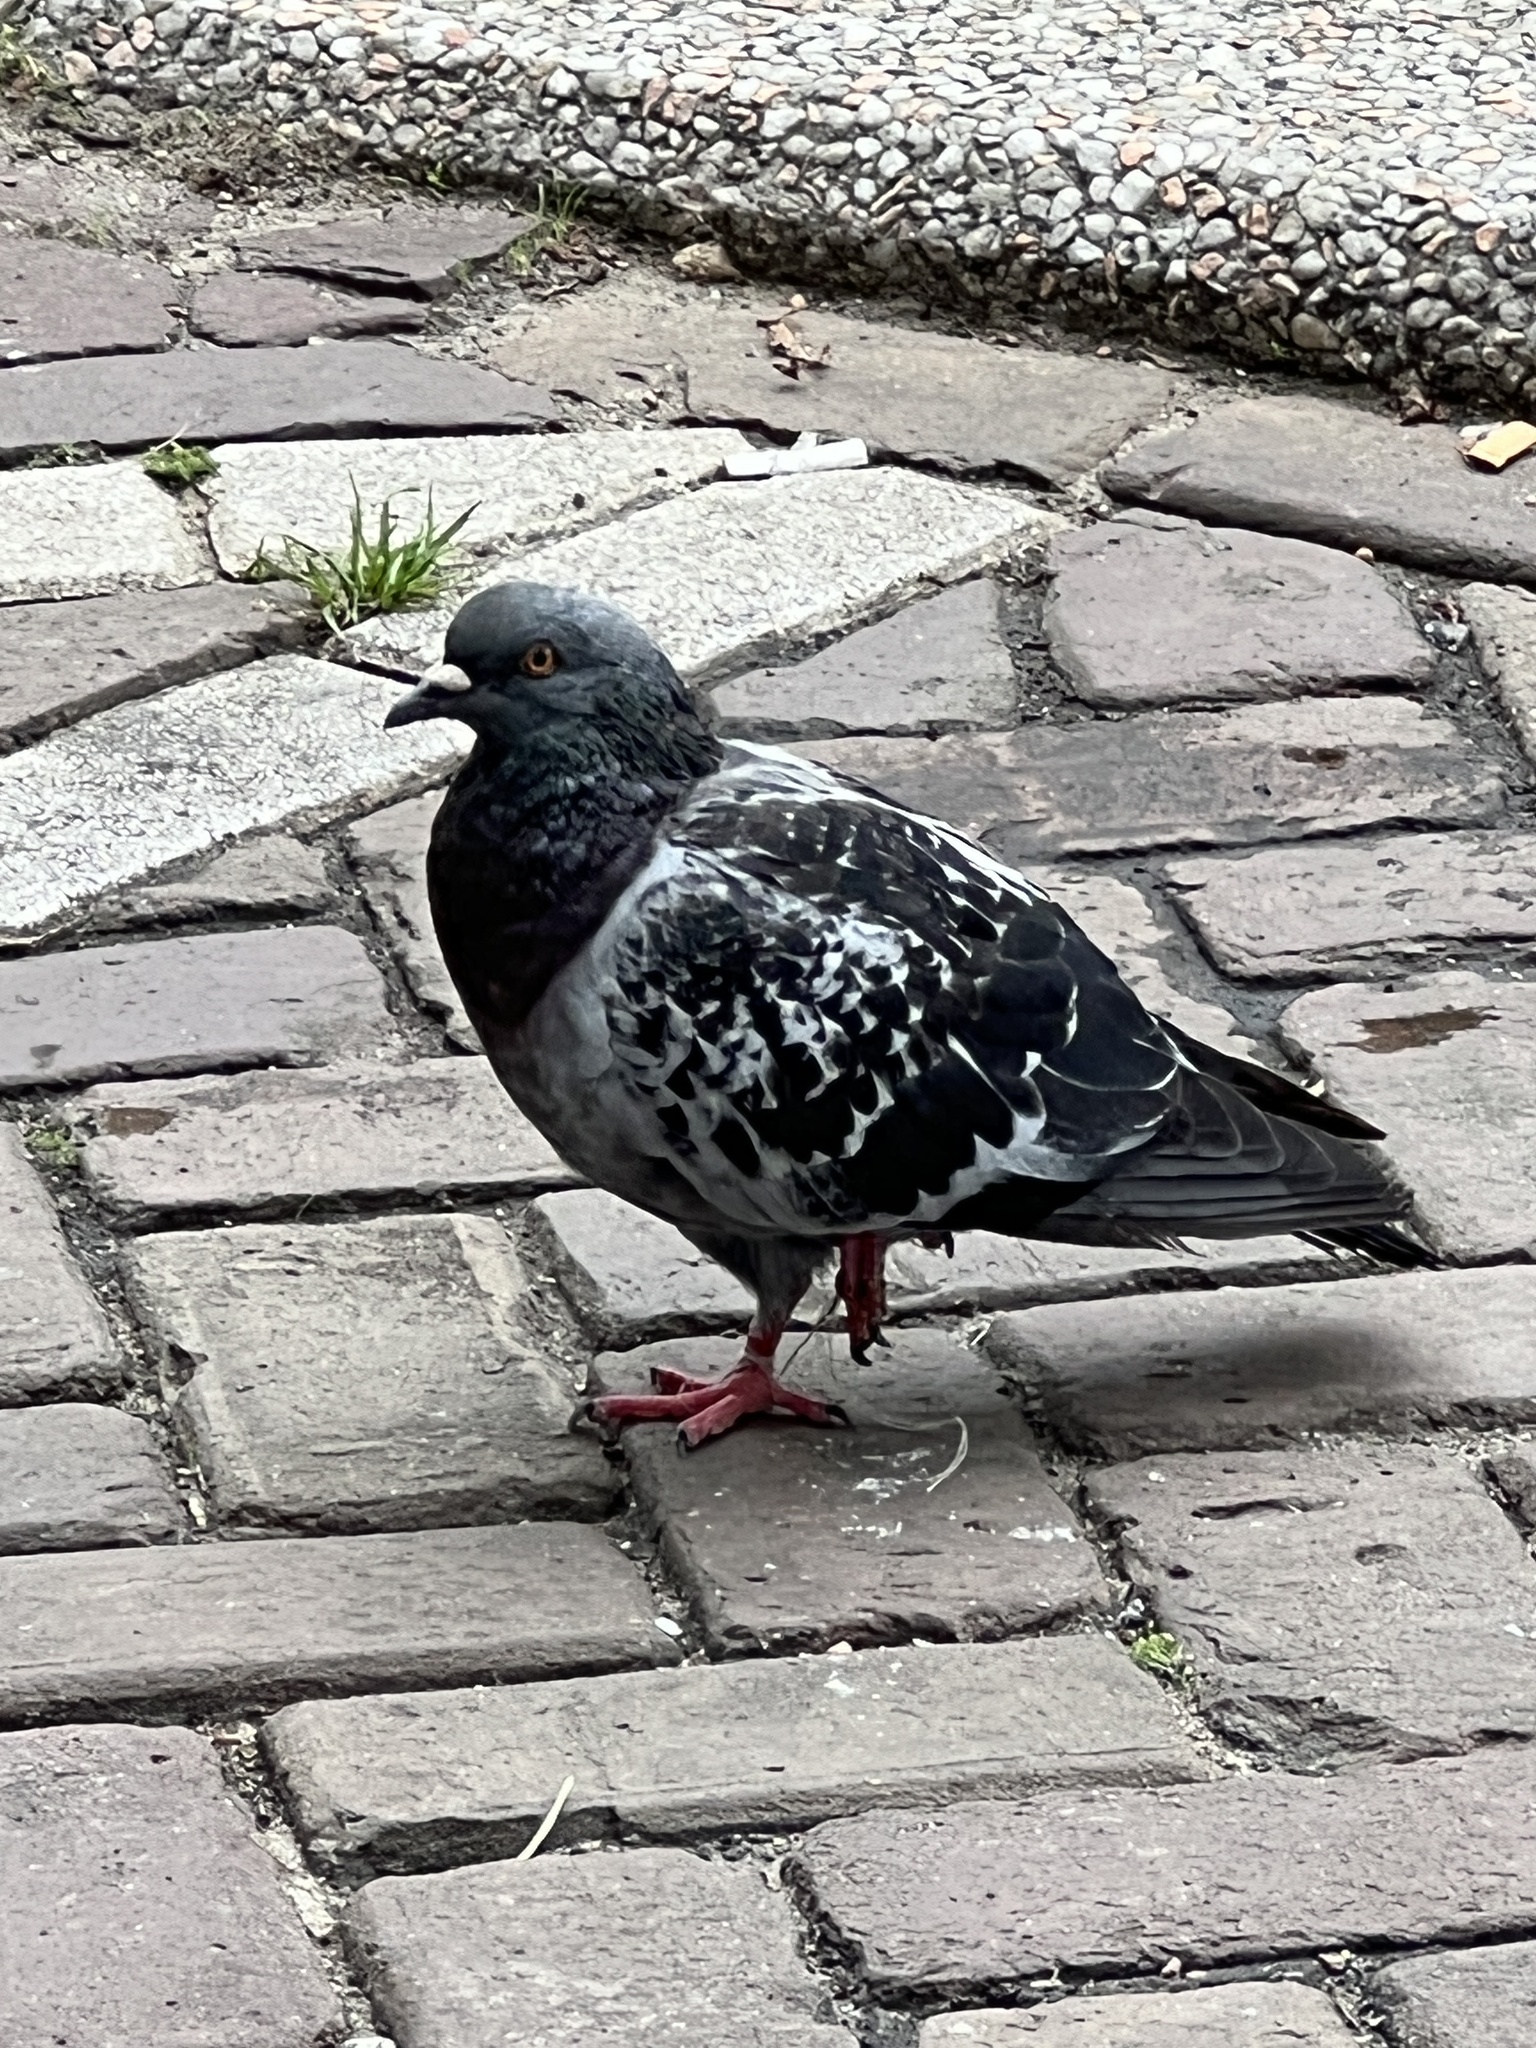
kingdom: Animalia
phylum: Chordata
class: Aves
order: Columbiformes
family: Columbidae
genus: Columba
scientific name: Columba livia
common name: Rock pigeon
